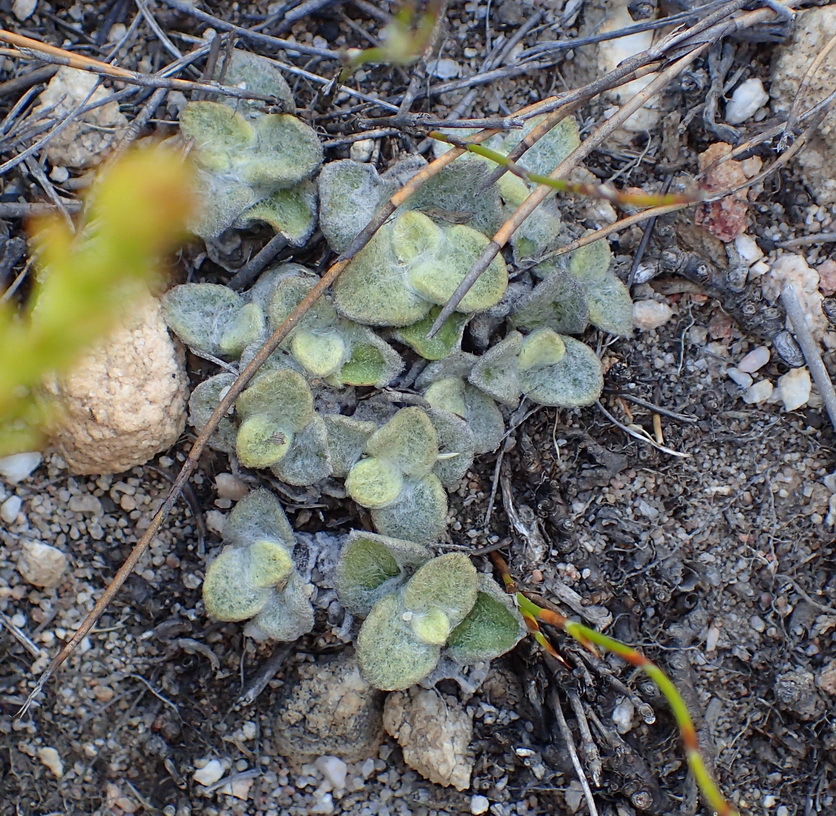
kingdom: Plantae
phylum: Tracheophyta
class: Magnoliopsida
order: Asterales
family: Asteraceae
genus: Helichrysum
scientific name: Helichrysum rotundifolium
